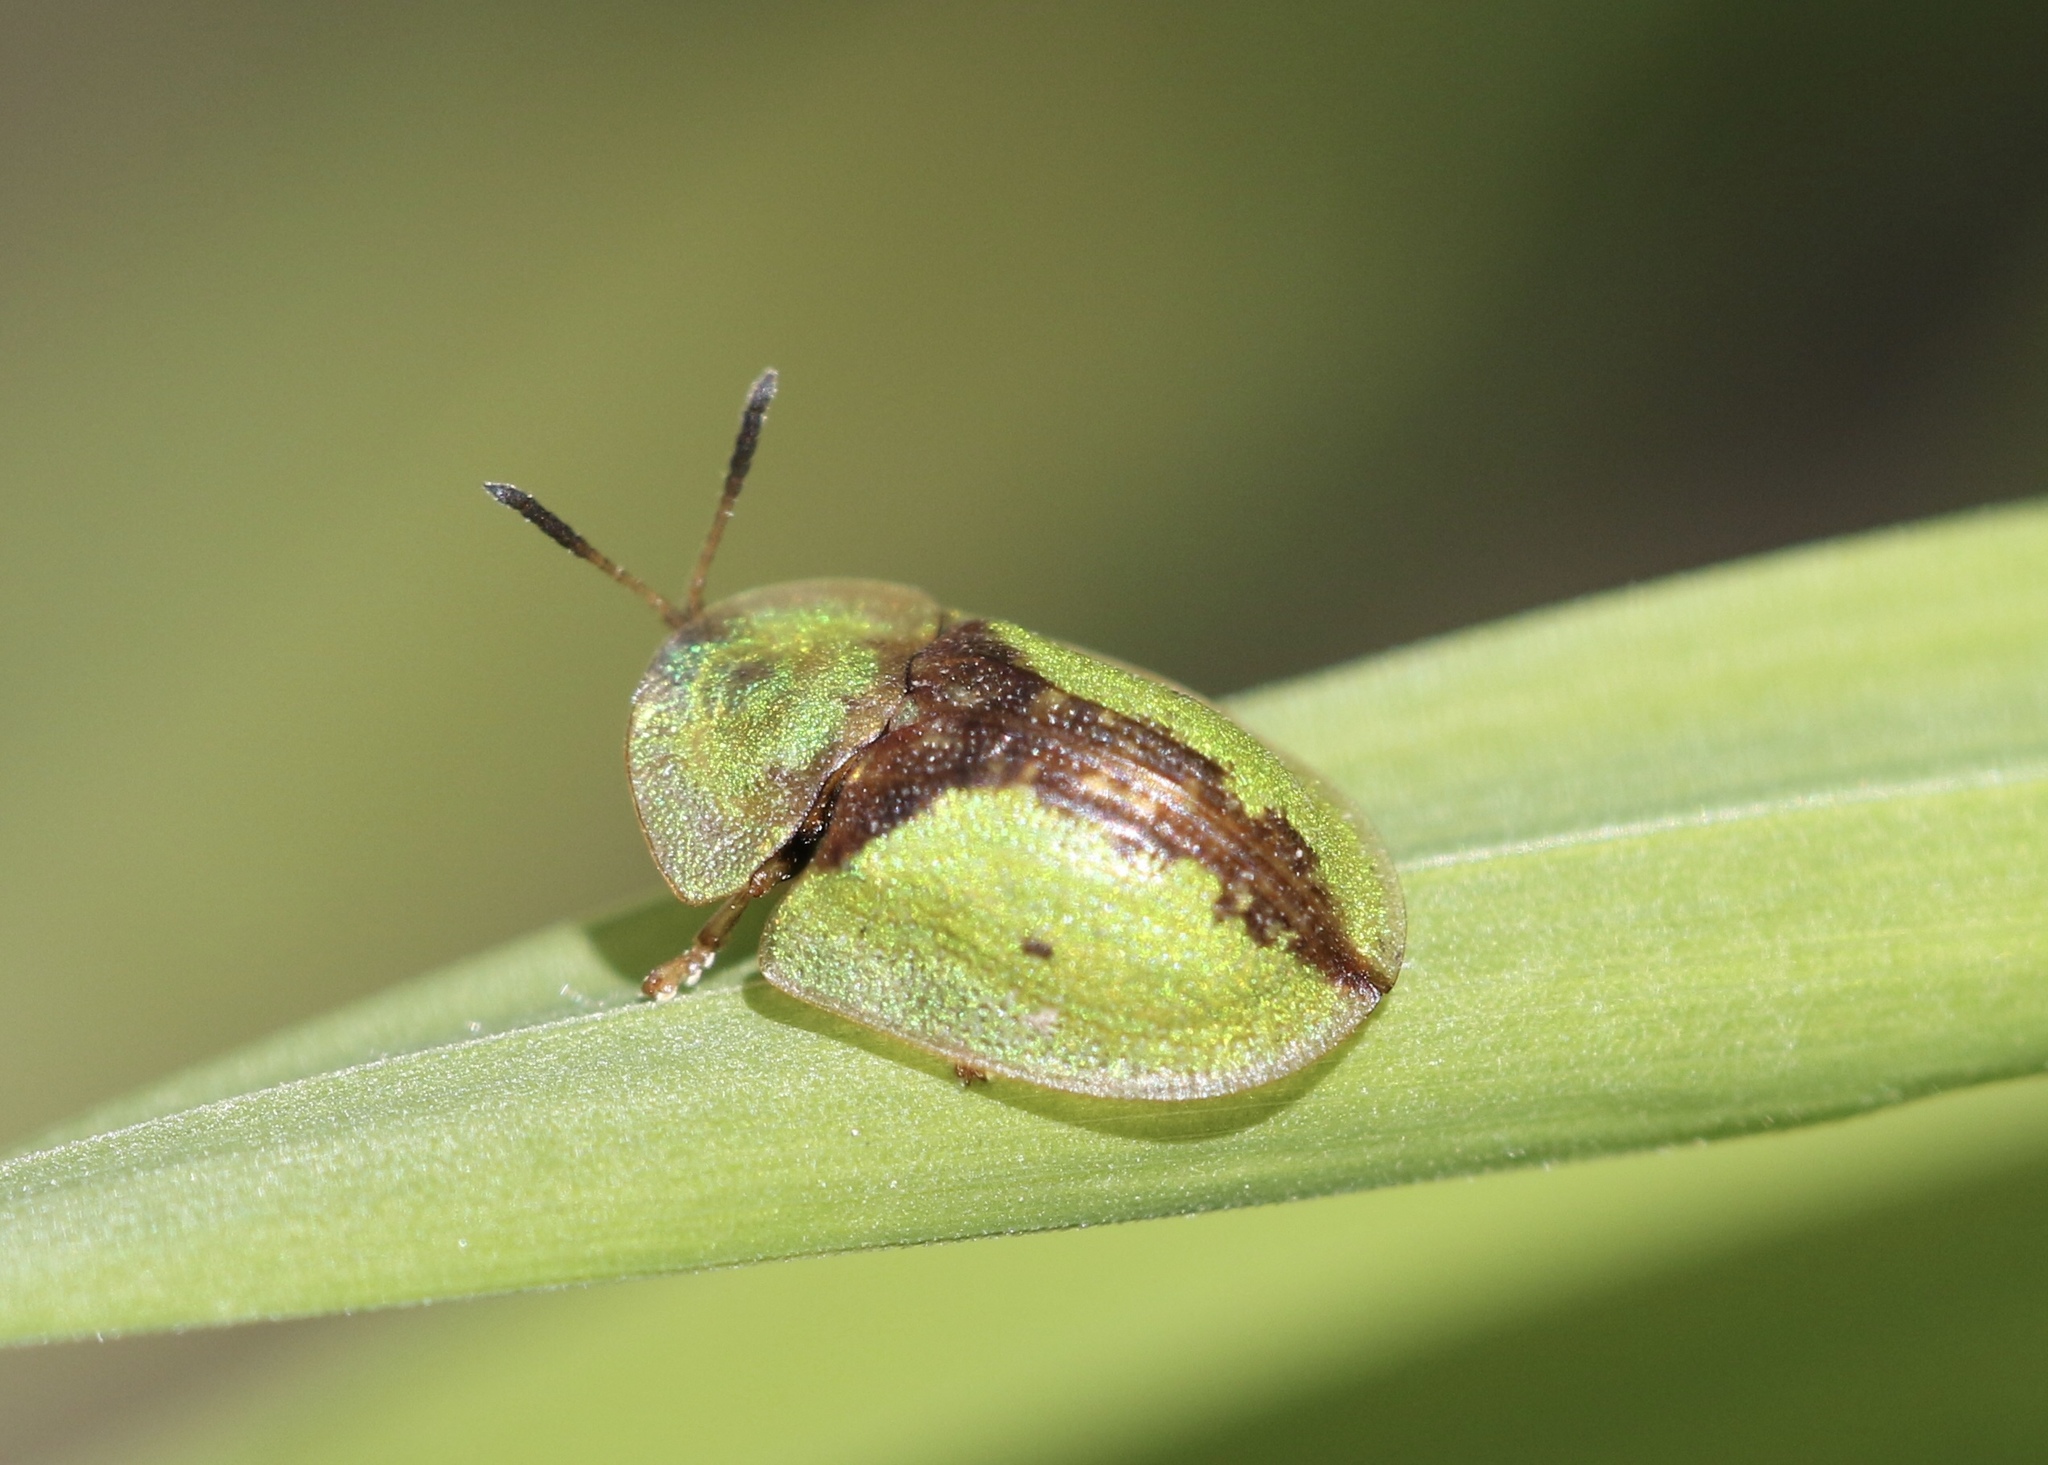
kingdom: Animalia
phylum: Arthropoda
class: Insecta
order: Coleoptera
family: Chrysomelidae
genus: Cassida
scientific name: Cassida vibex
